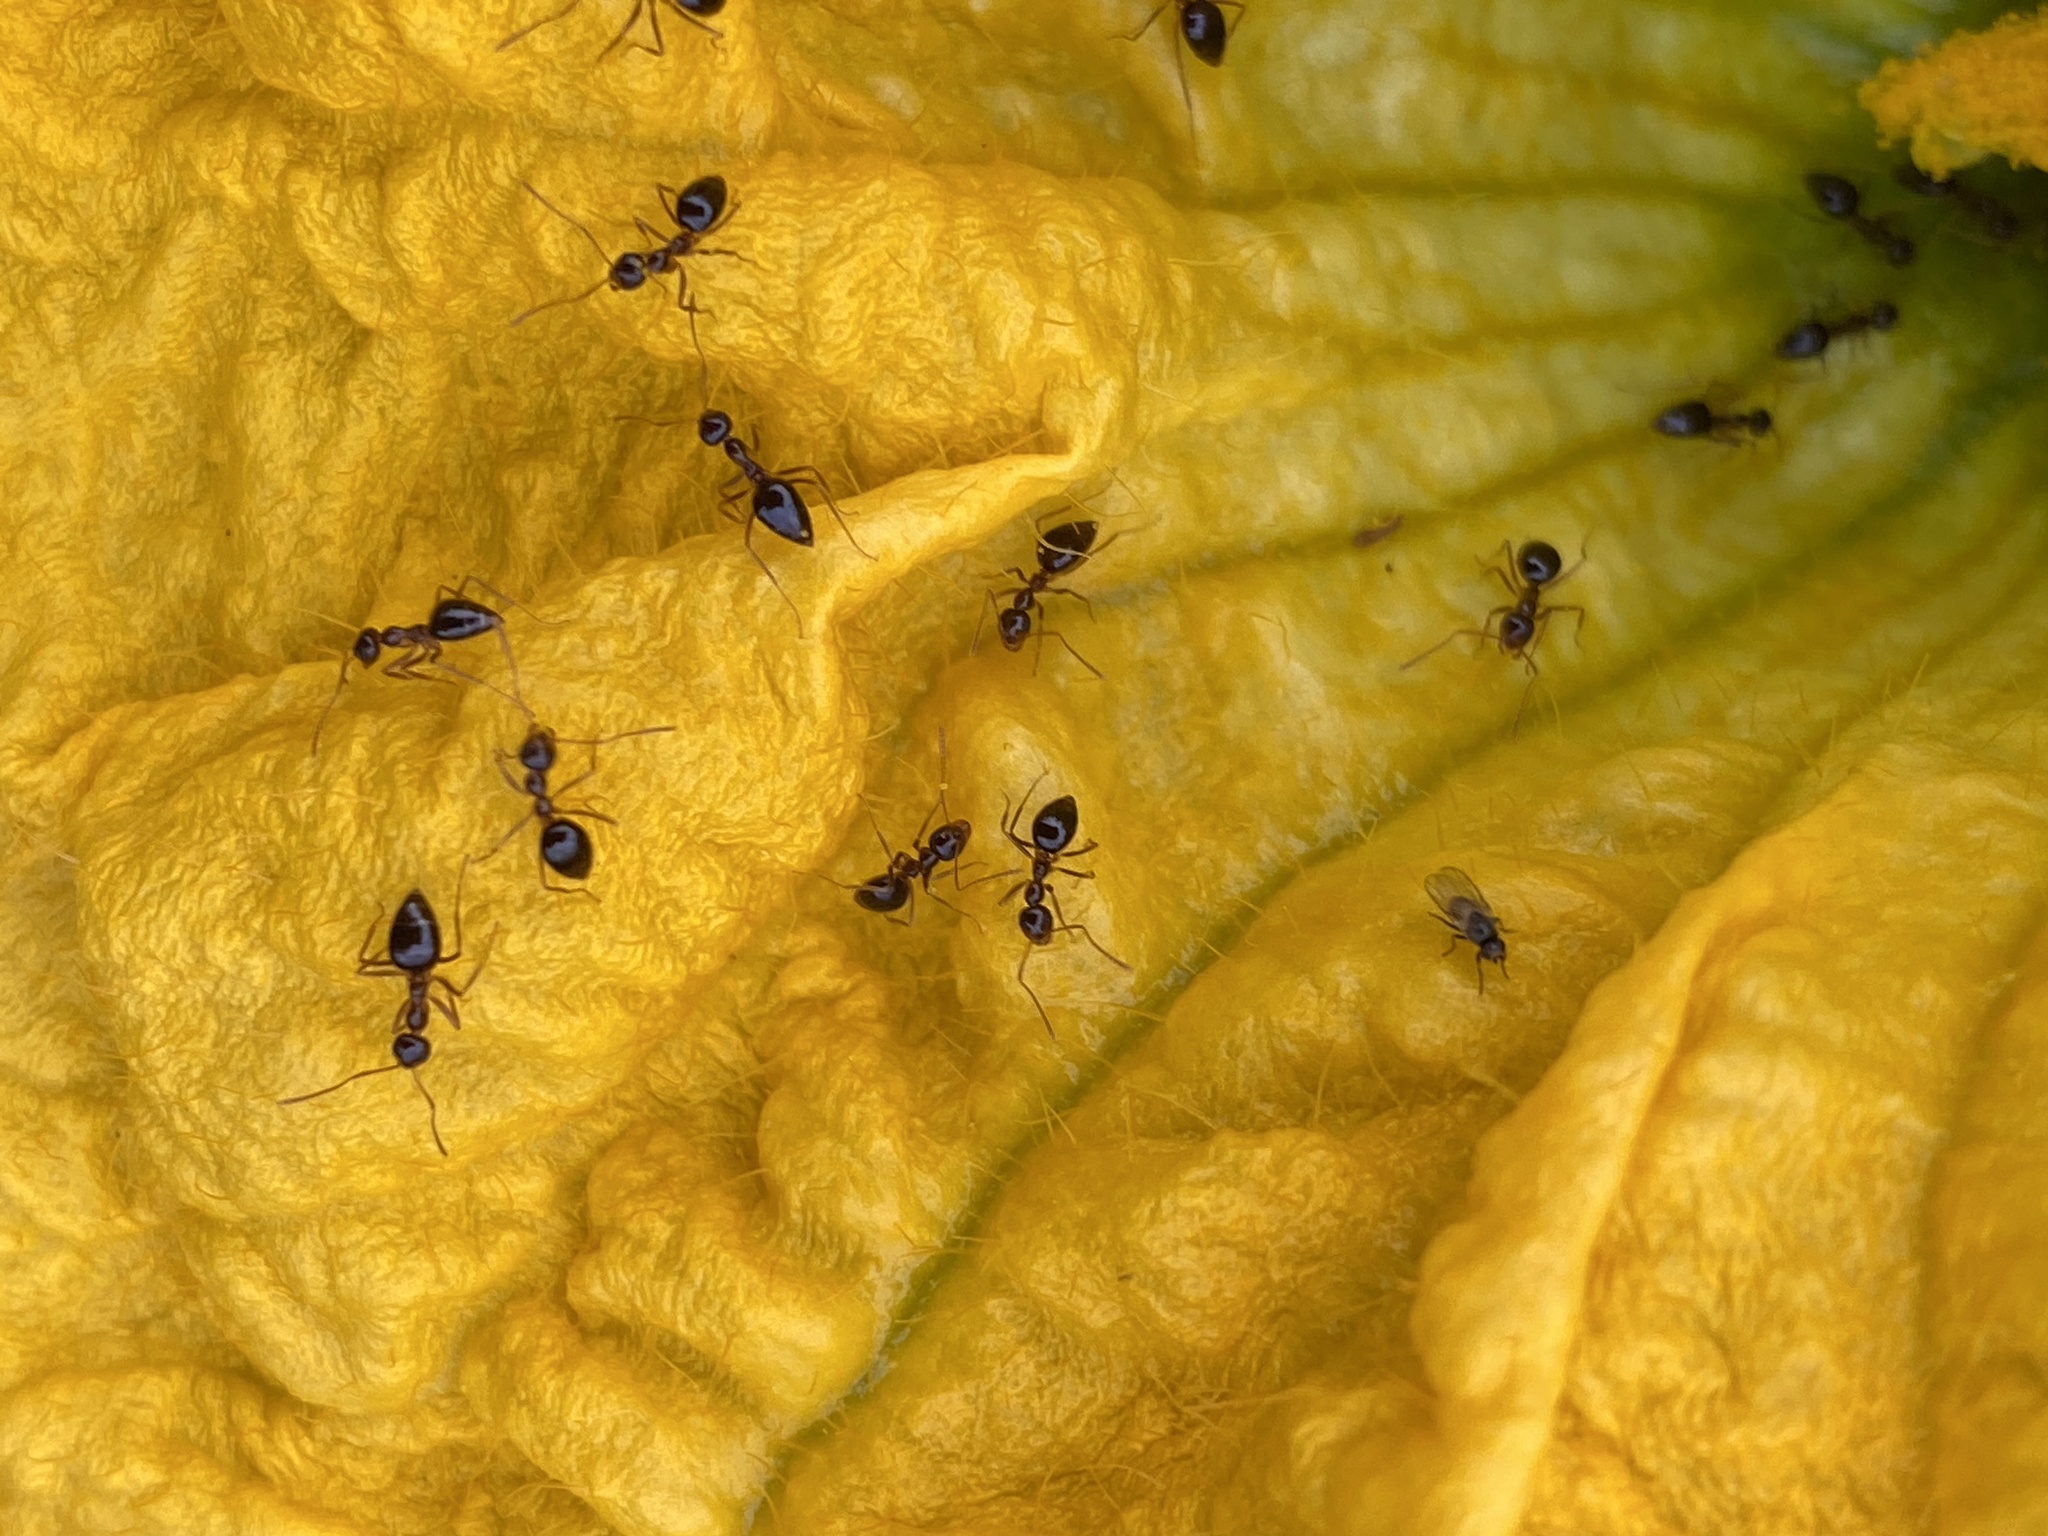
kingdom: Animalia
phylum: Arthropoda
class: Insecta
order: Hymenoptera
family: Formicidae
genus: Prenolepis
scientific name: Prenolepis imparis
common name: Small honey ant
